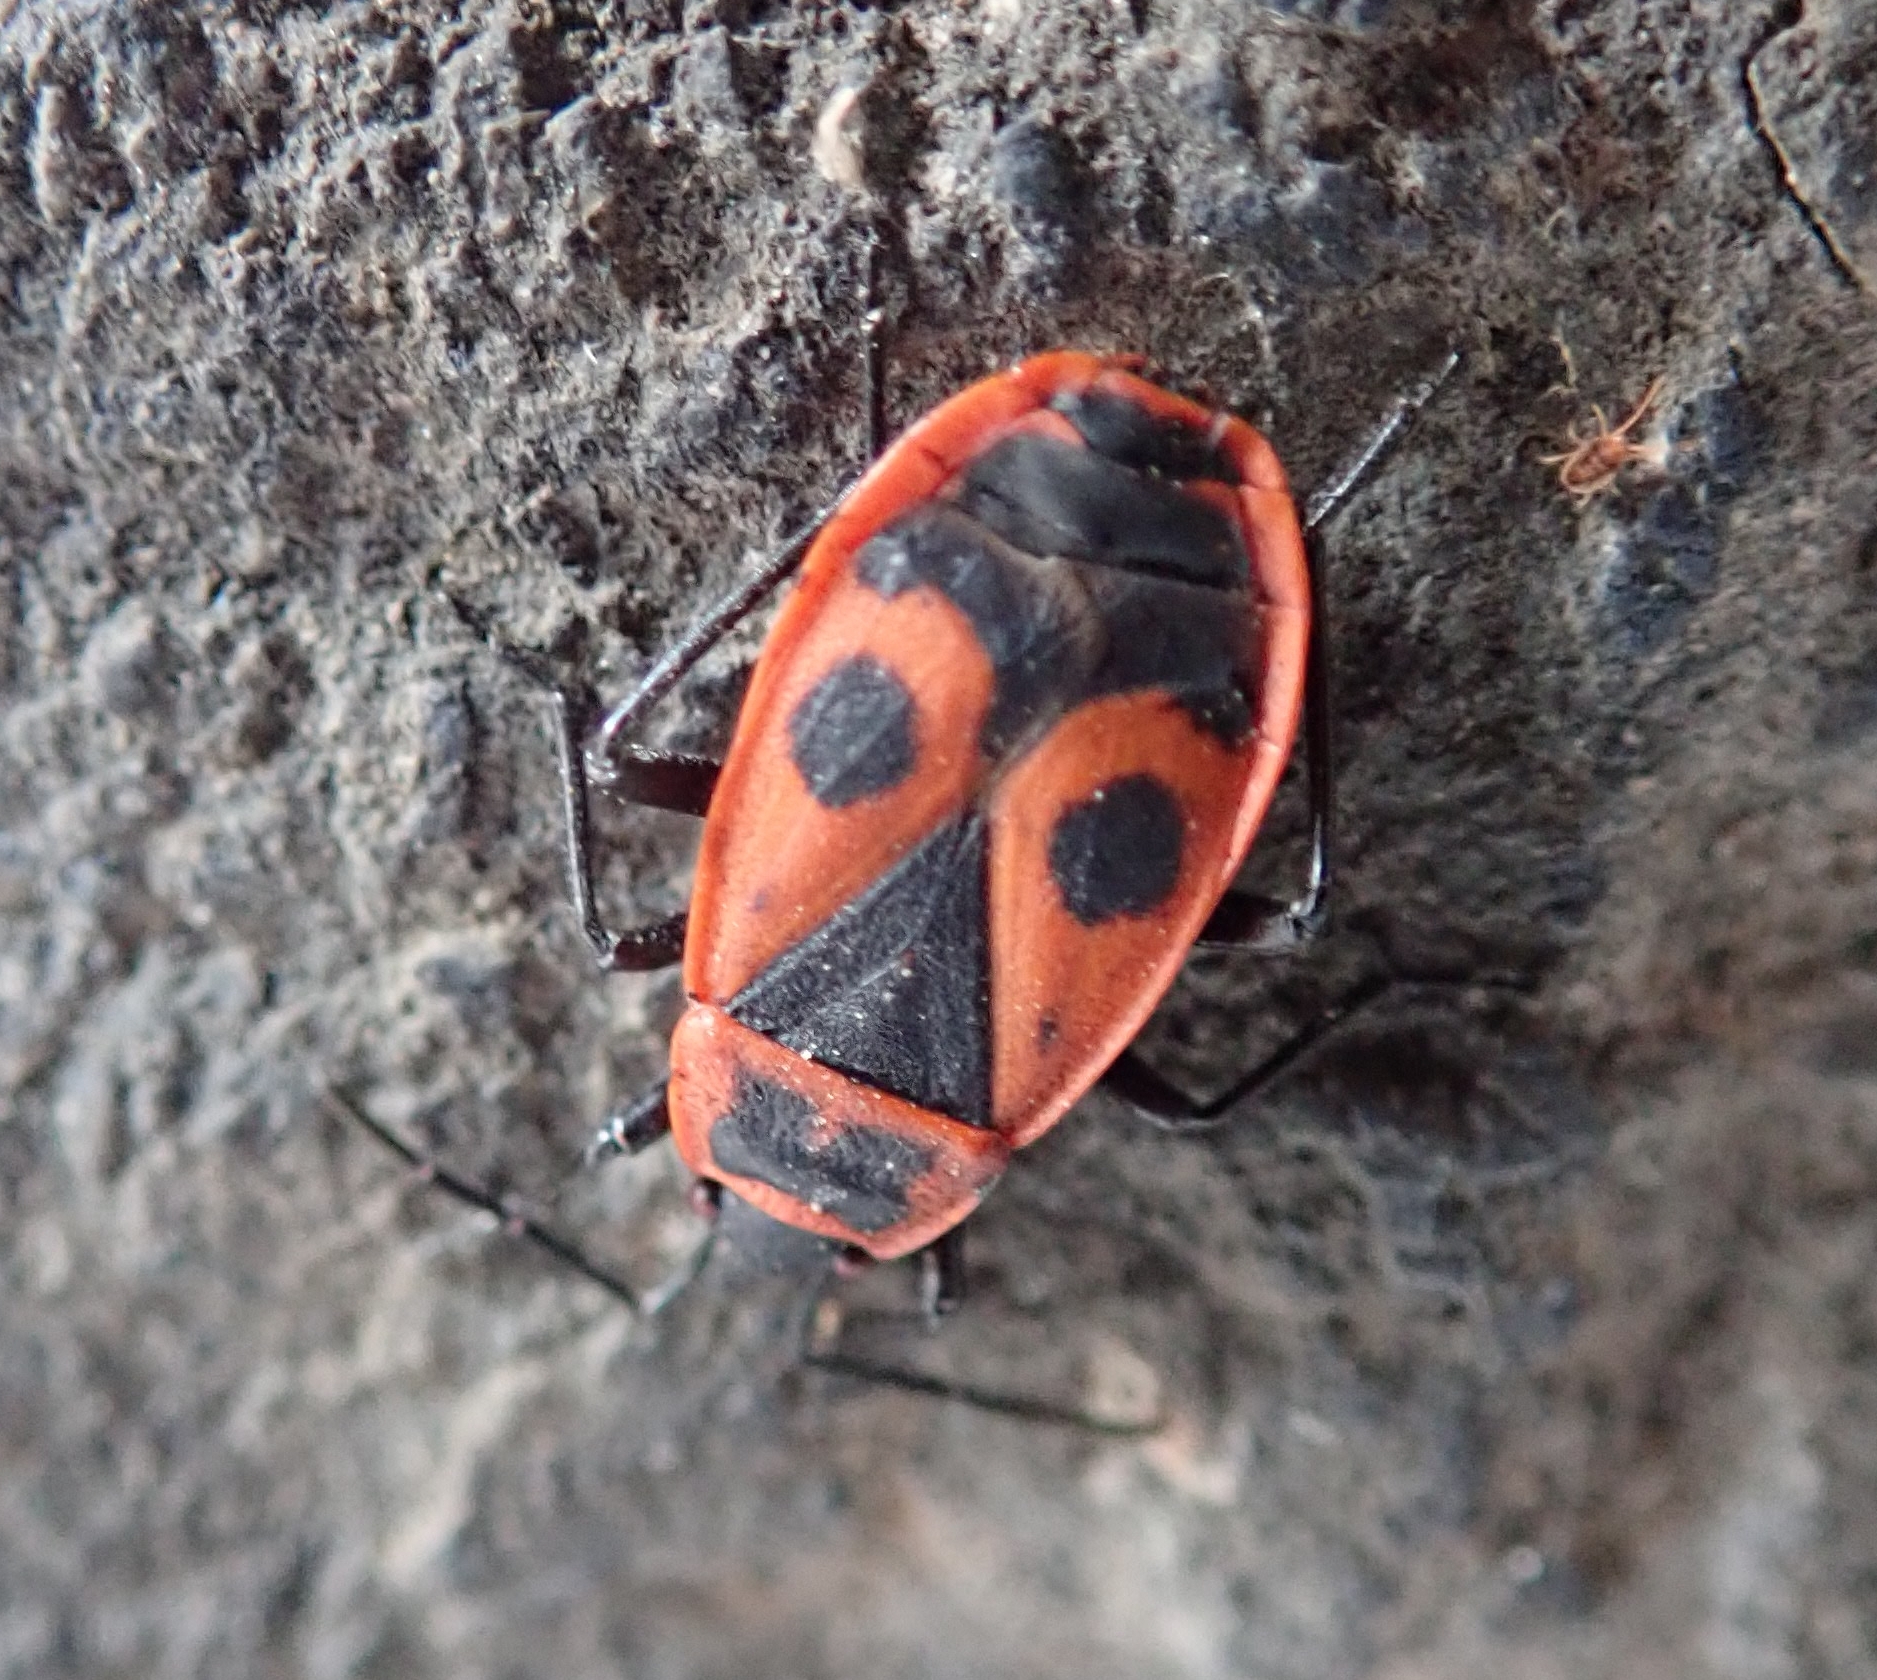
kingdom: Animalia
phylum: Arthropoda
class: Insecta
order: Hemiptera
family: Pyrrhocoridae
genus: Pyrrhocoris
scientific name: Pyrrhocoris apterus
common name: Firebug
